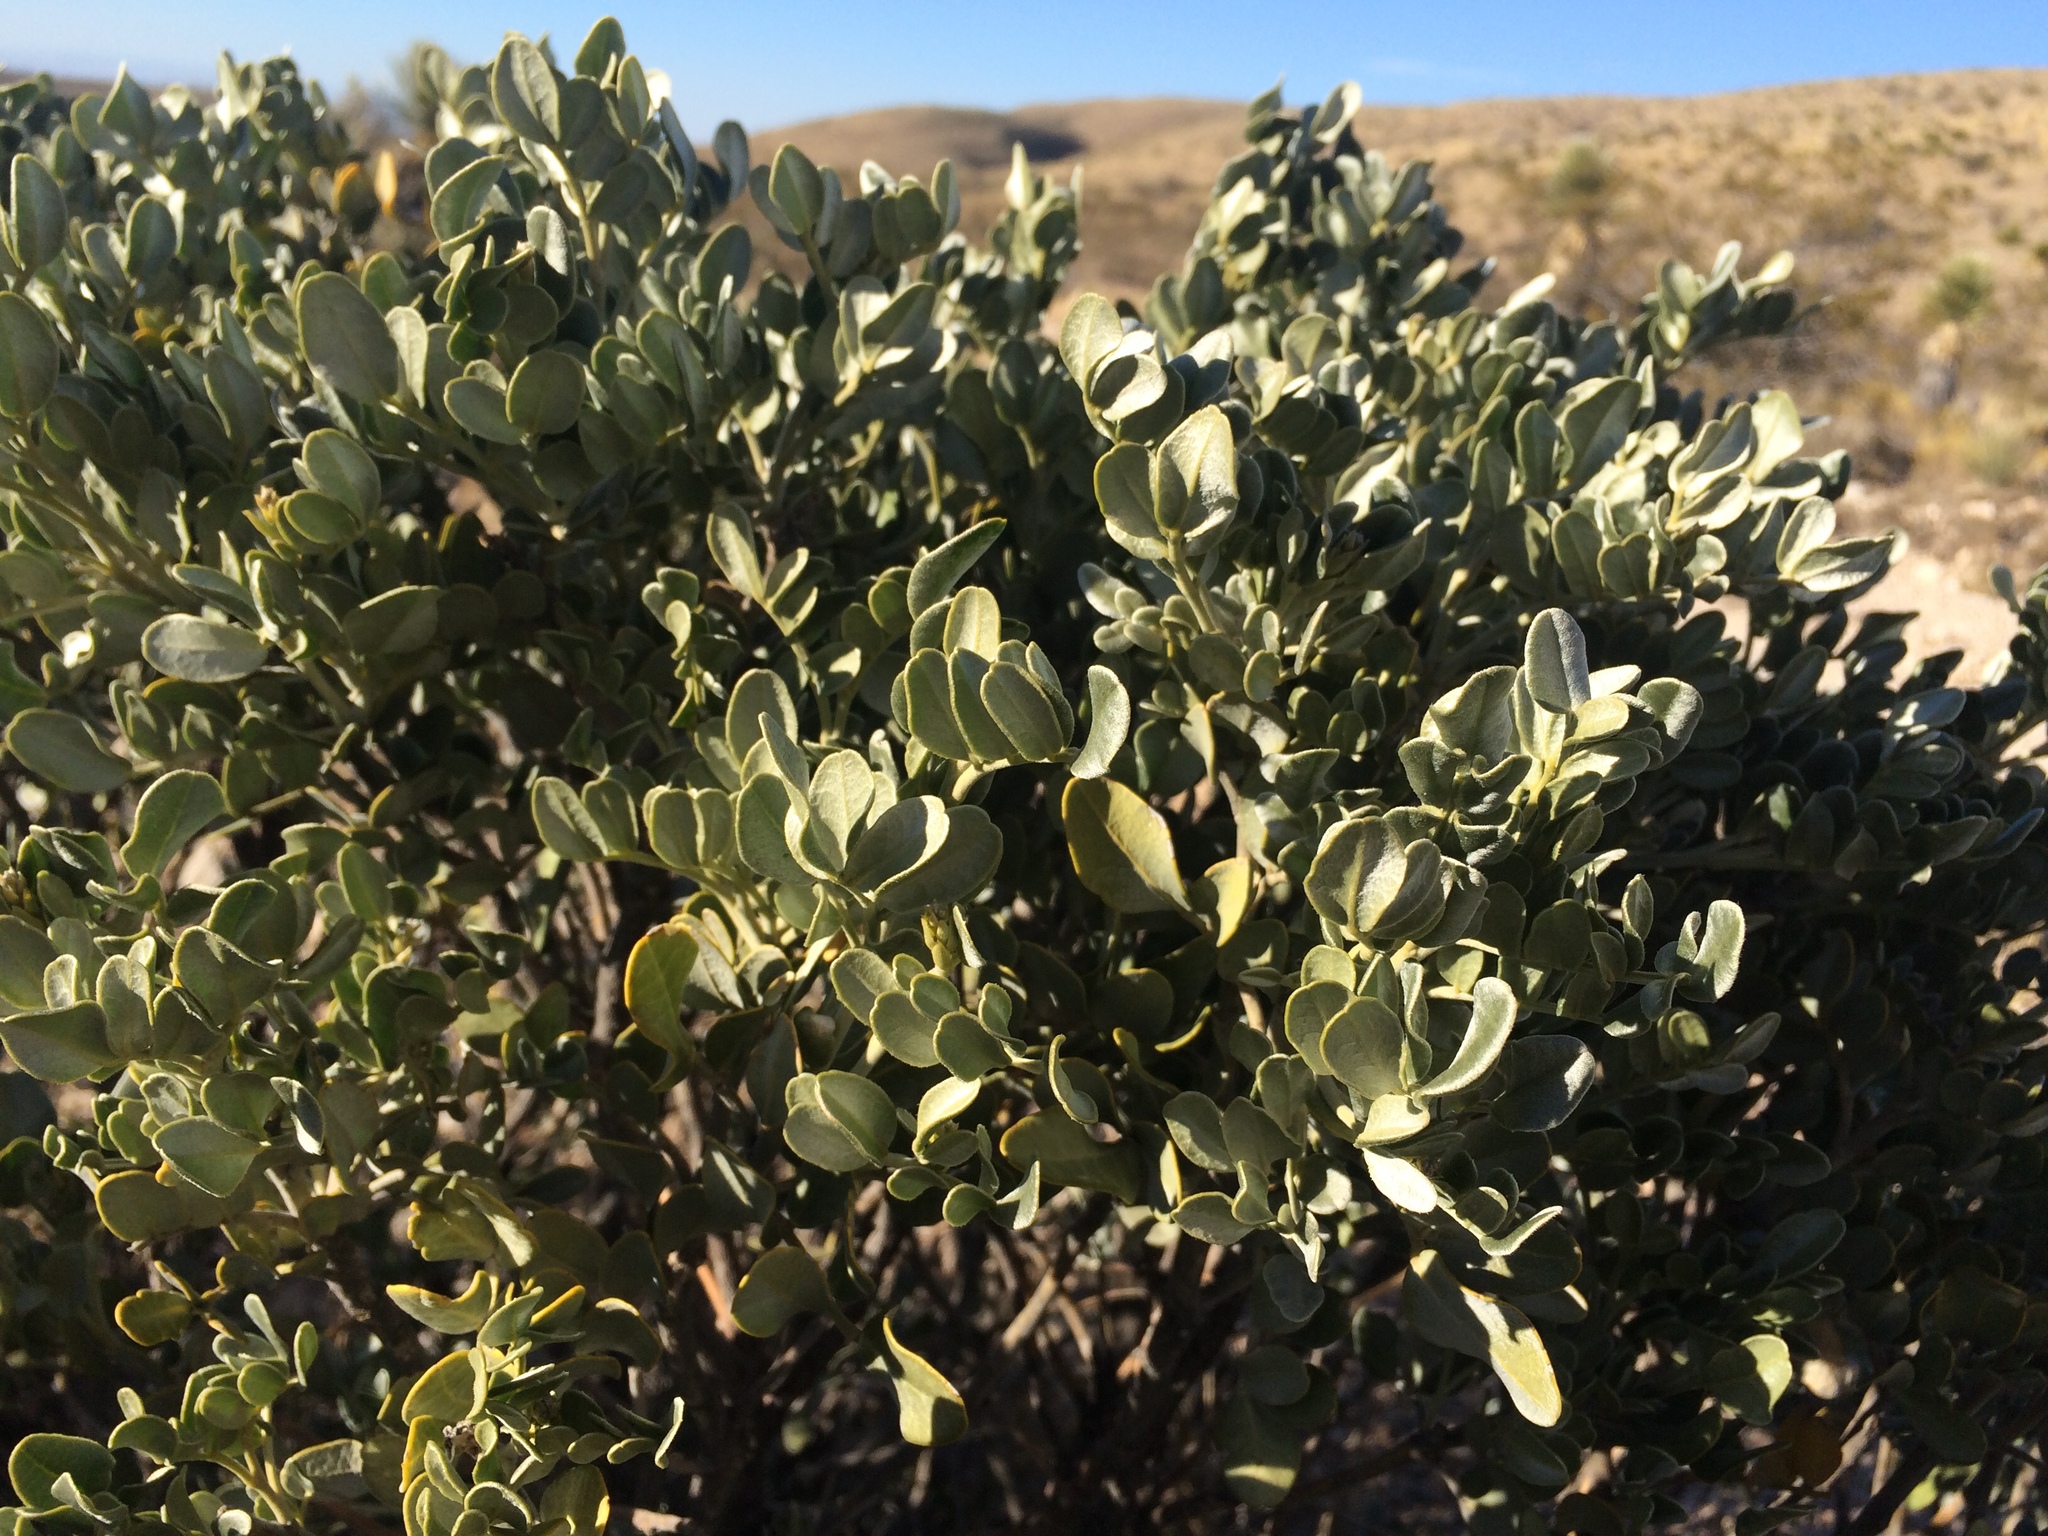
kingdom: Plantae
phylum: Tracheophyta
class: Magnoliopsida
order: Fabales
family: Fabaceae
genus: Dermatophyllum
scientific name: Dermatophyllum gypsophilum
